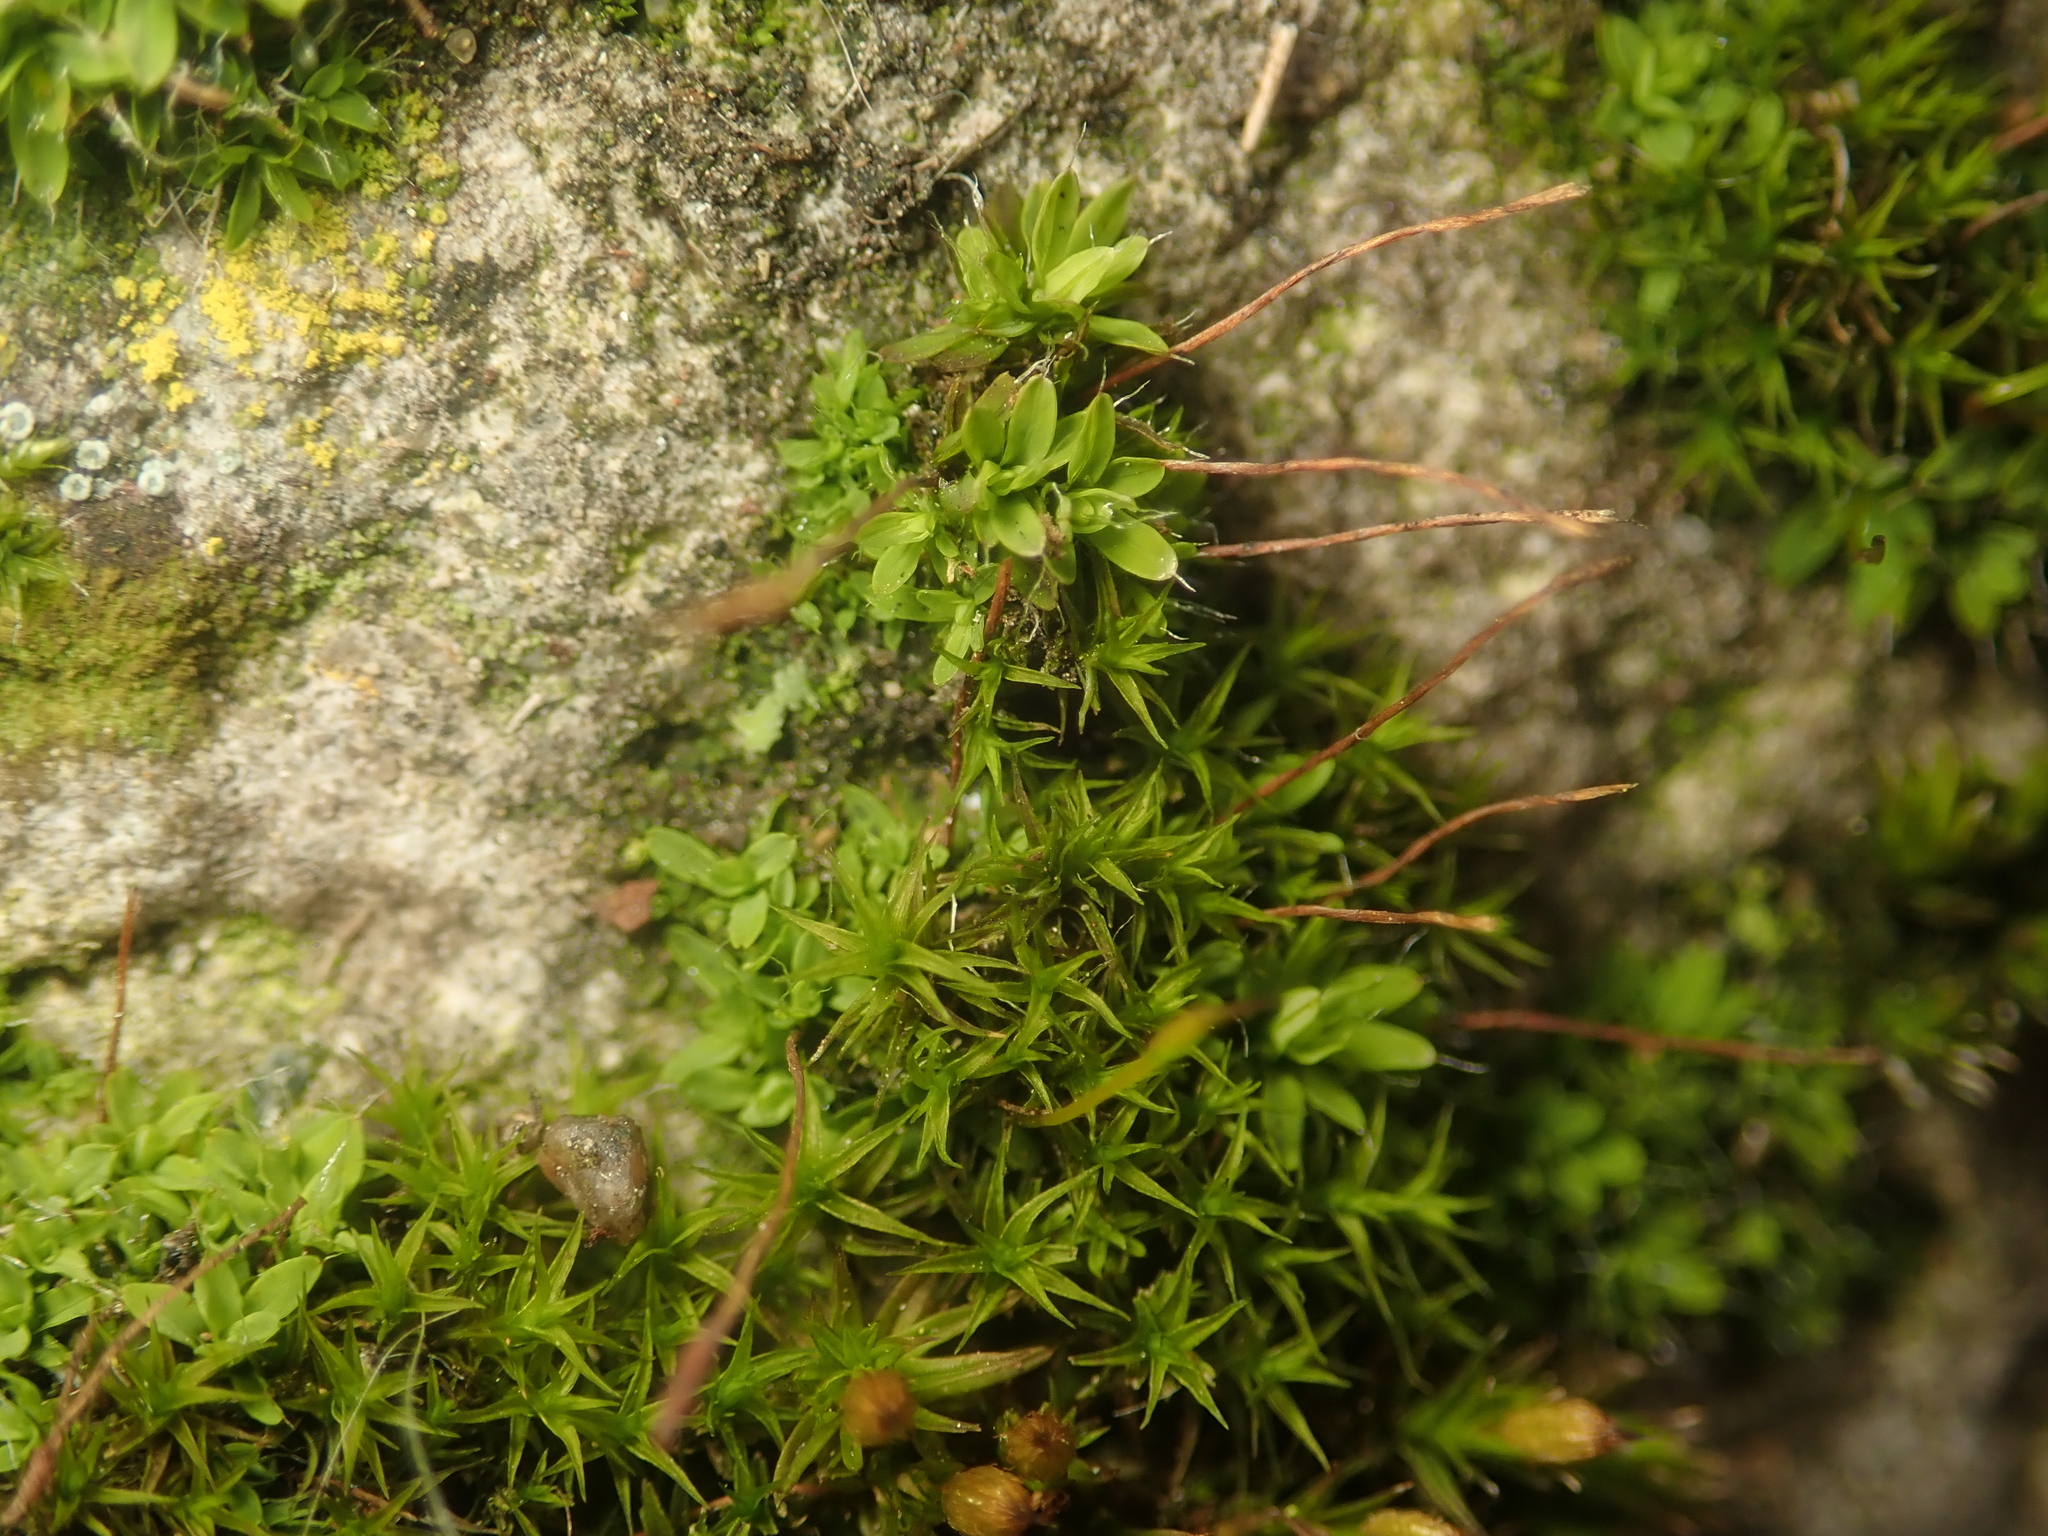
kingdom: Plantae
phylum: Bryophyta
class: Bryopsida
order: Pottiales
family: Pottiaceae
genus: Tortula
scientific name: Tortula muralis
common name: Wall screw-moss
